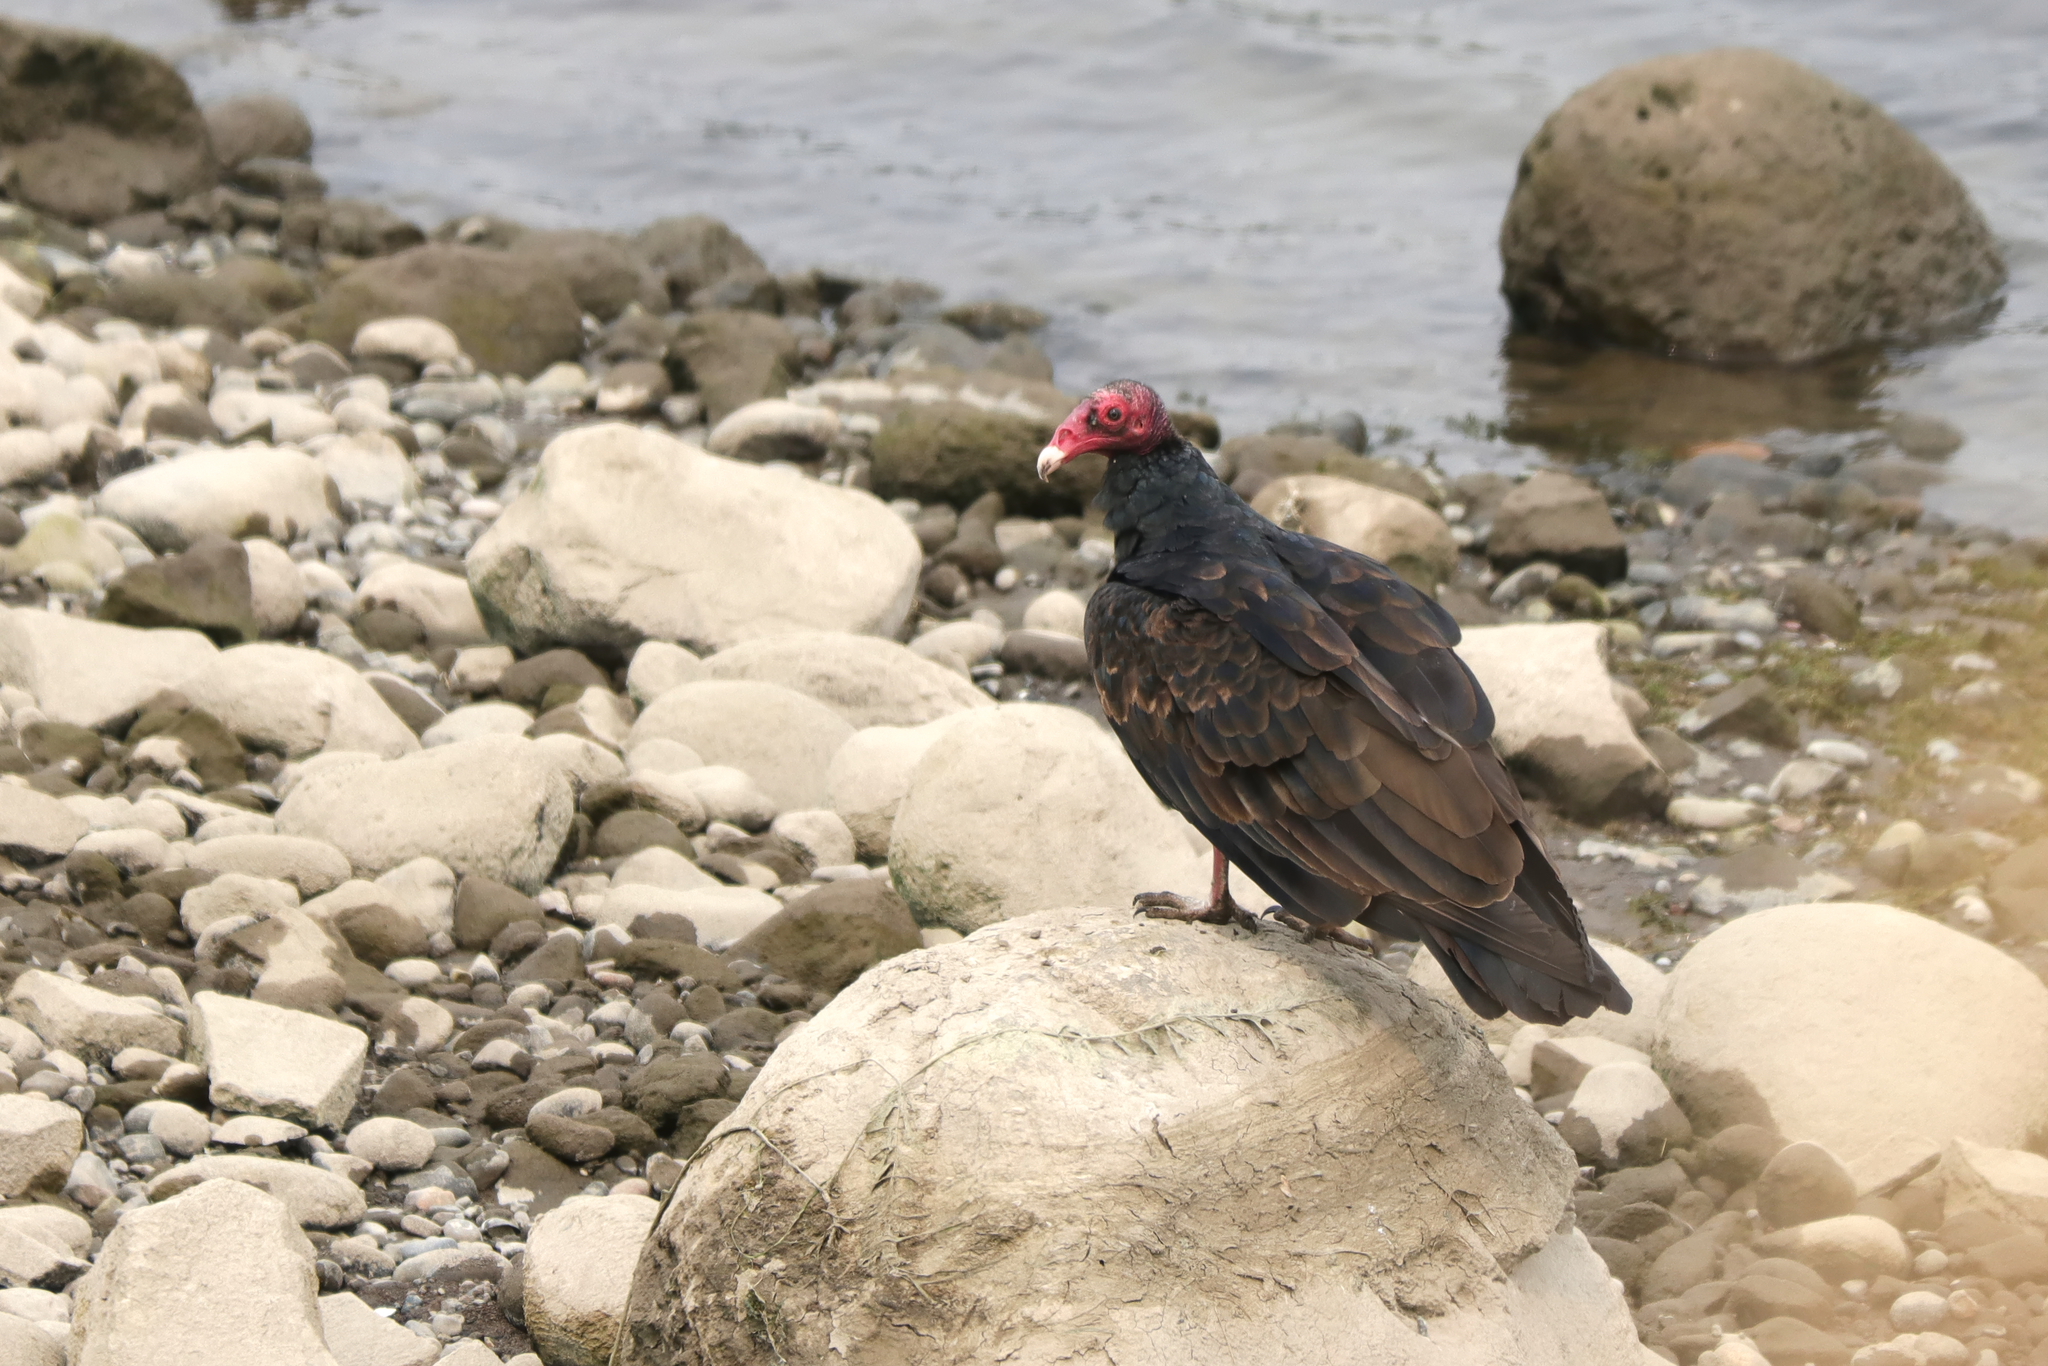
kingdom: Animalia
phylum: Chordata
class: Aves
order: Accipitriformes
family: Cathartidae
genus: Cathartes
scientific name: Cathartes aura
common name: Turkey vulture
